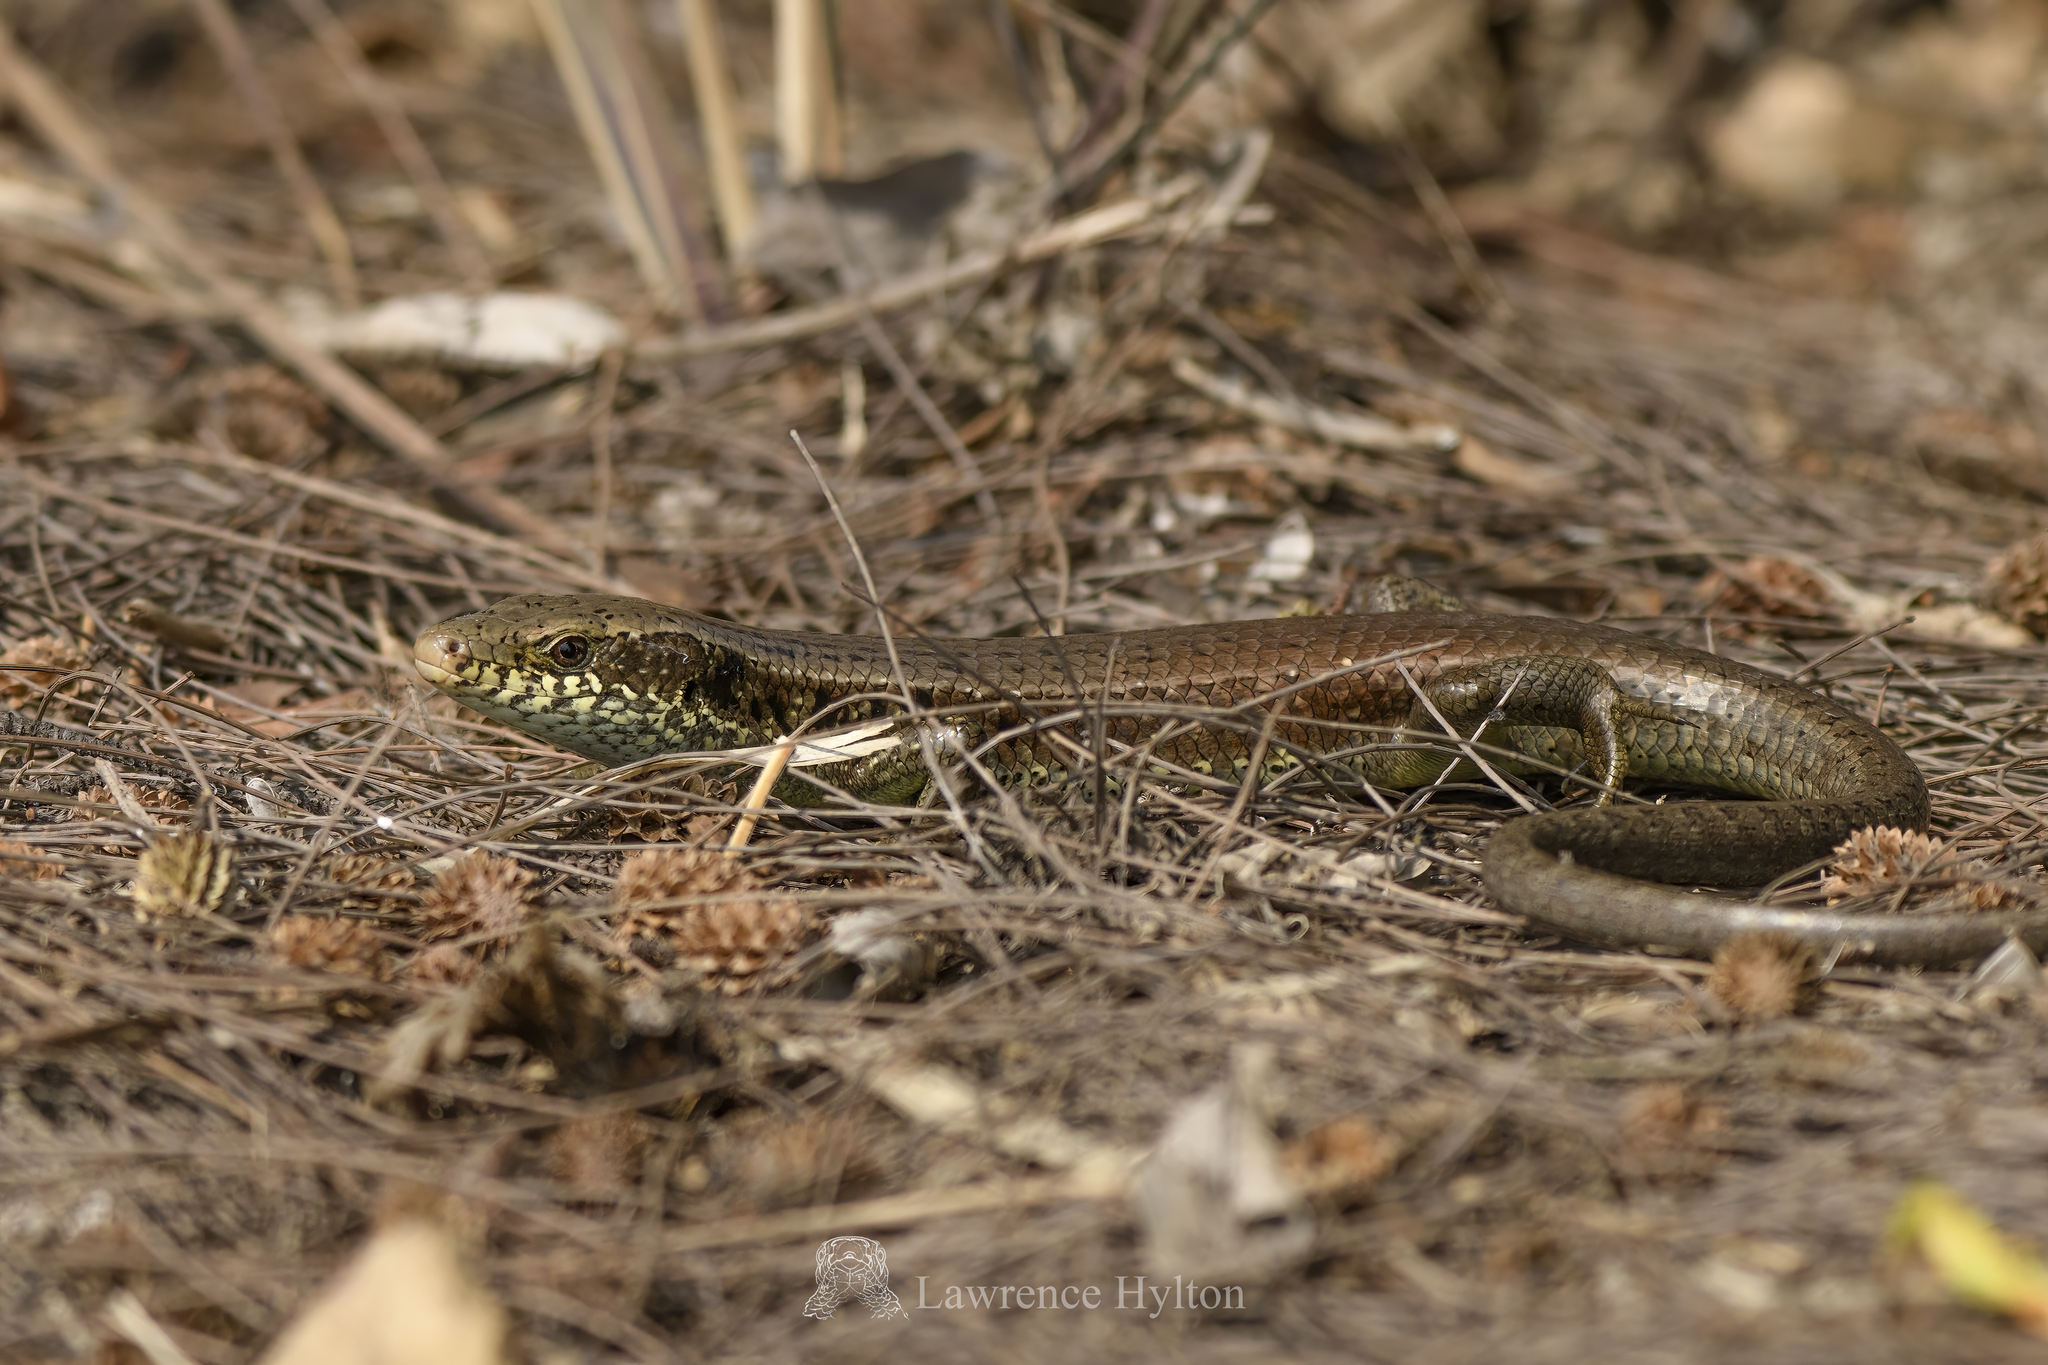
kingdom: Animalia
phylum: Chordata
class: Squamata
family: Scincidae
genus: Eutropis
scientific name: Eutropis longicaudata
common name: Long-tailed sun skink
